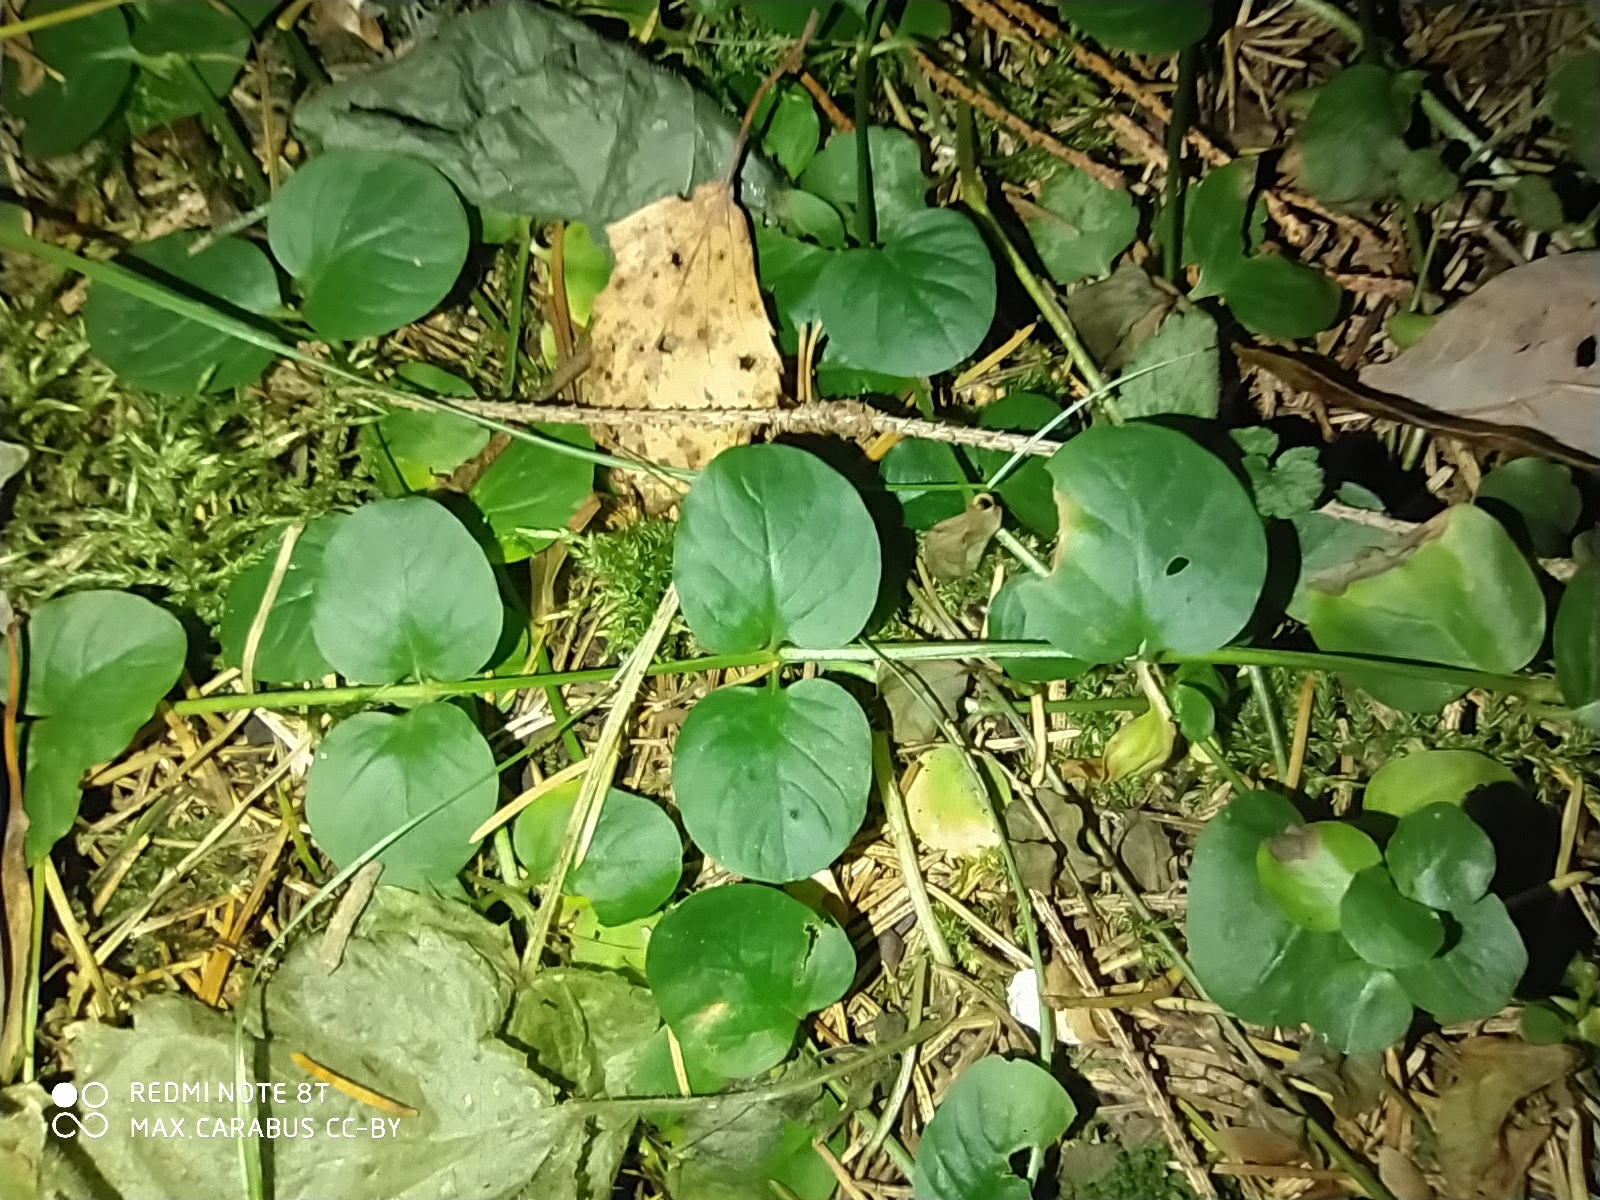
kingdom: Plantae
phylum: Tracheophyta
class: Magnoliopsida
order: Ericales
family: Primulaceae
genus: Lysimachia
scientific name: Lysimachia nummularia
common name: Moneywort
